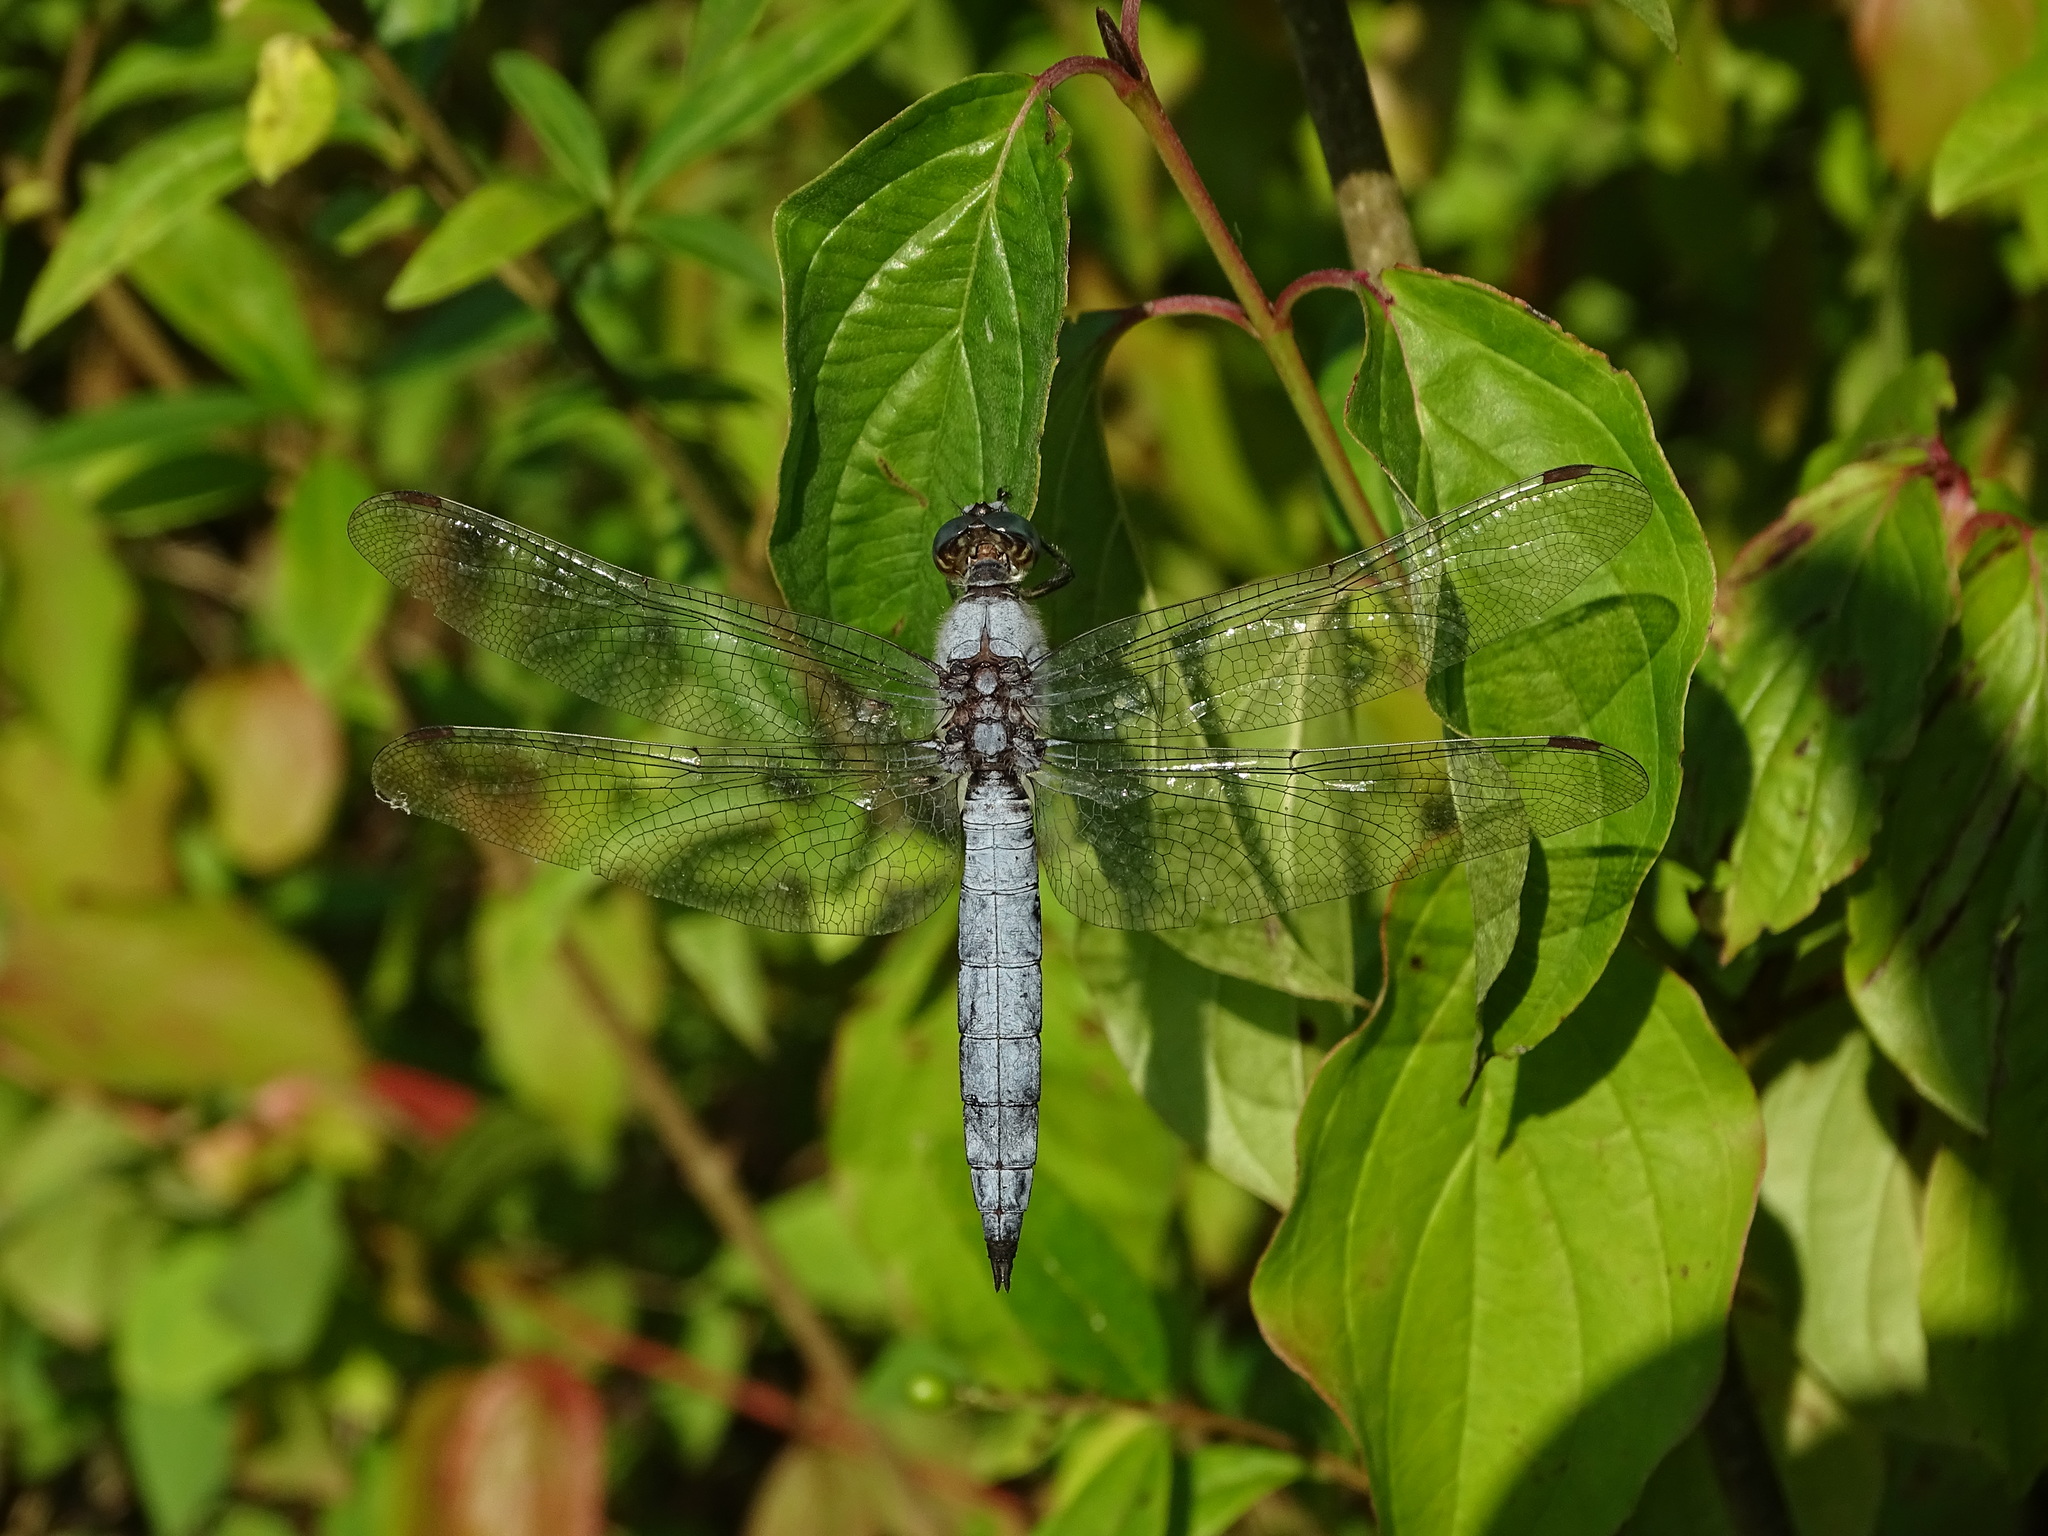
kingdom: Animalia
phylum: Arthropoda
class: Insecta
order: Odonata
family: Libellulidae
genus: Orthetrum
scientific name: Orthetrum brunneum
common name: Southern skimmer
